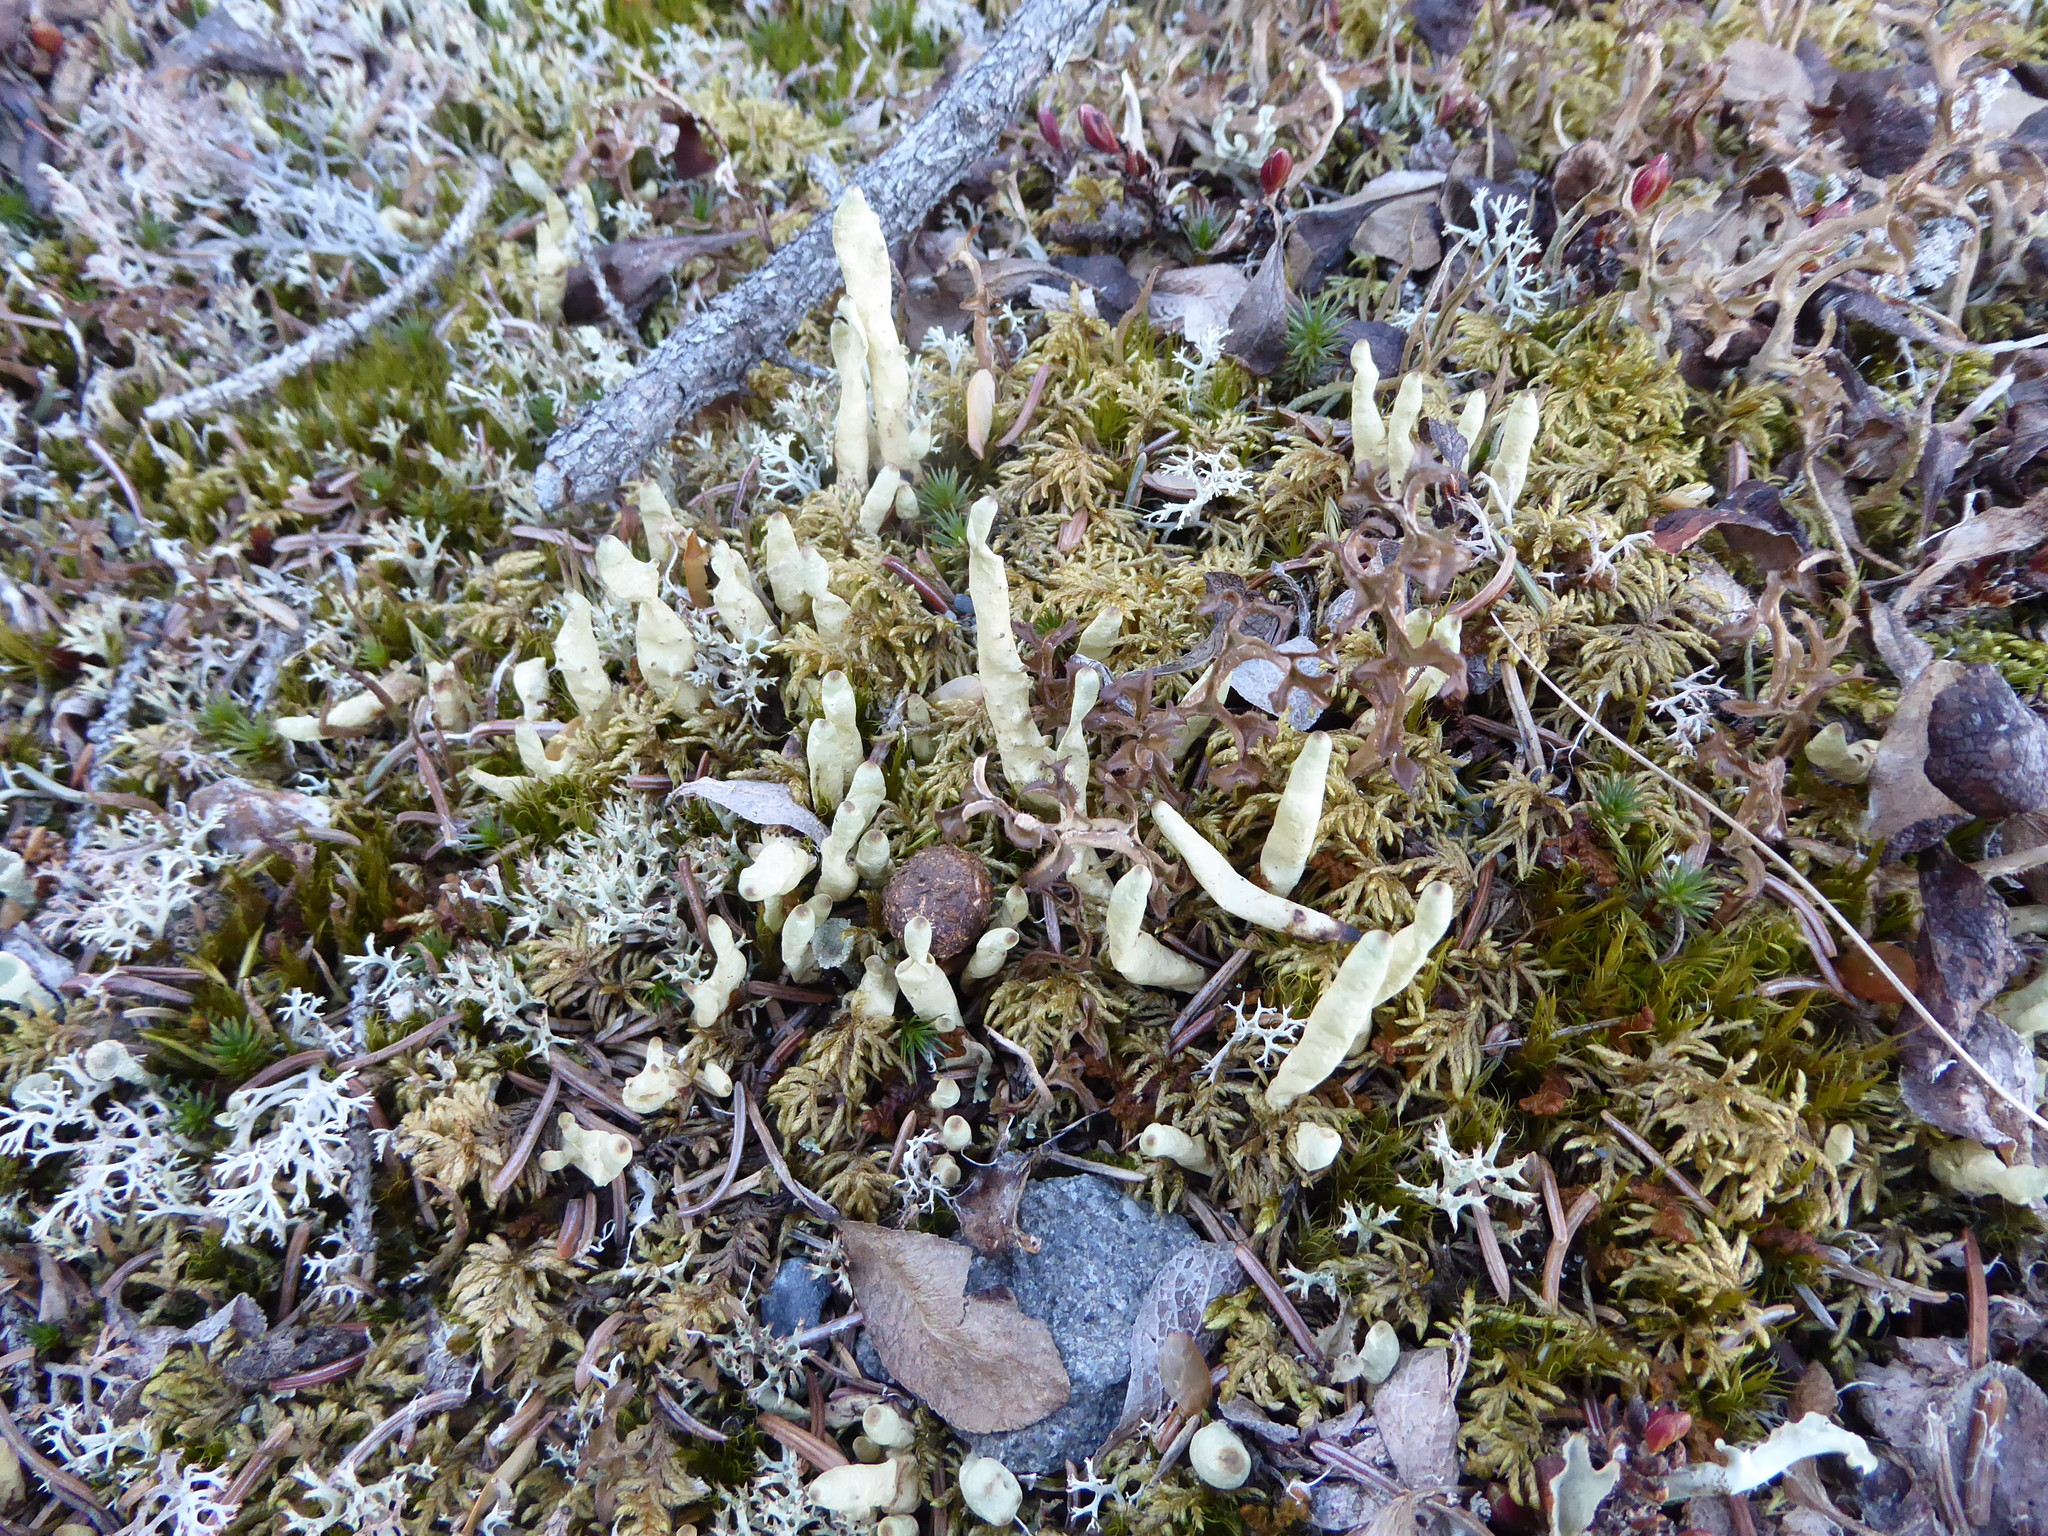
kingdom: Fungi
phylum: Ascomycota
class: Lecanoromycetes
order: Lecanorales
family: Parmeliaceae
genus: Dactylina
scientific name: Dactylina arctica
